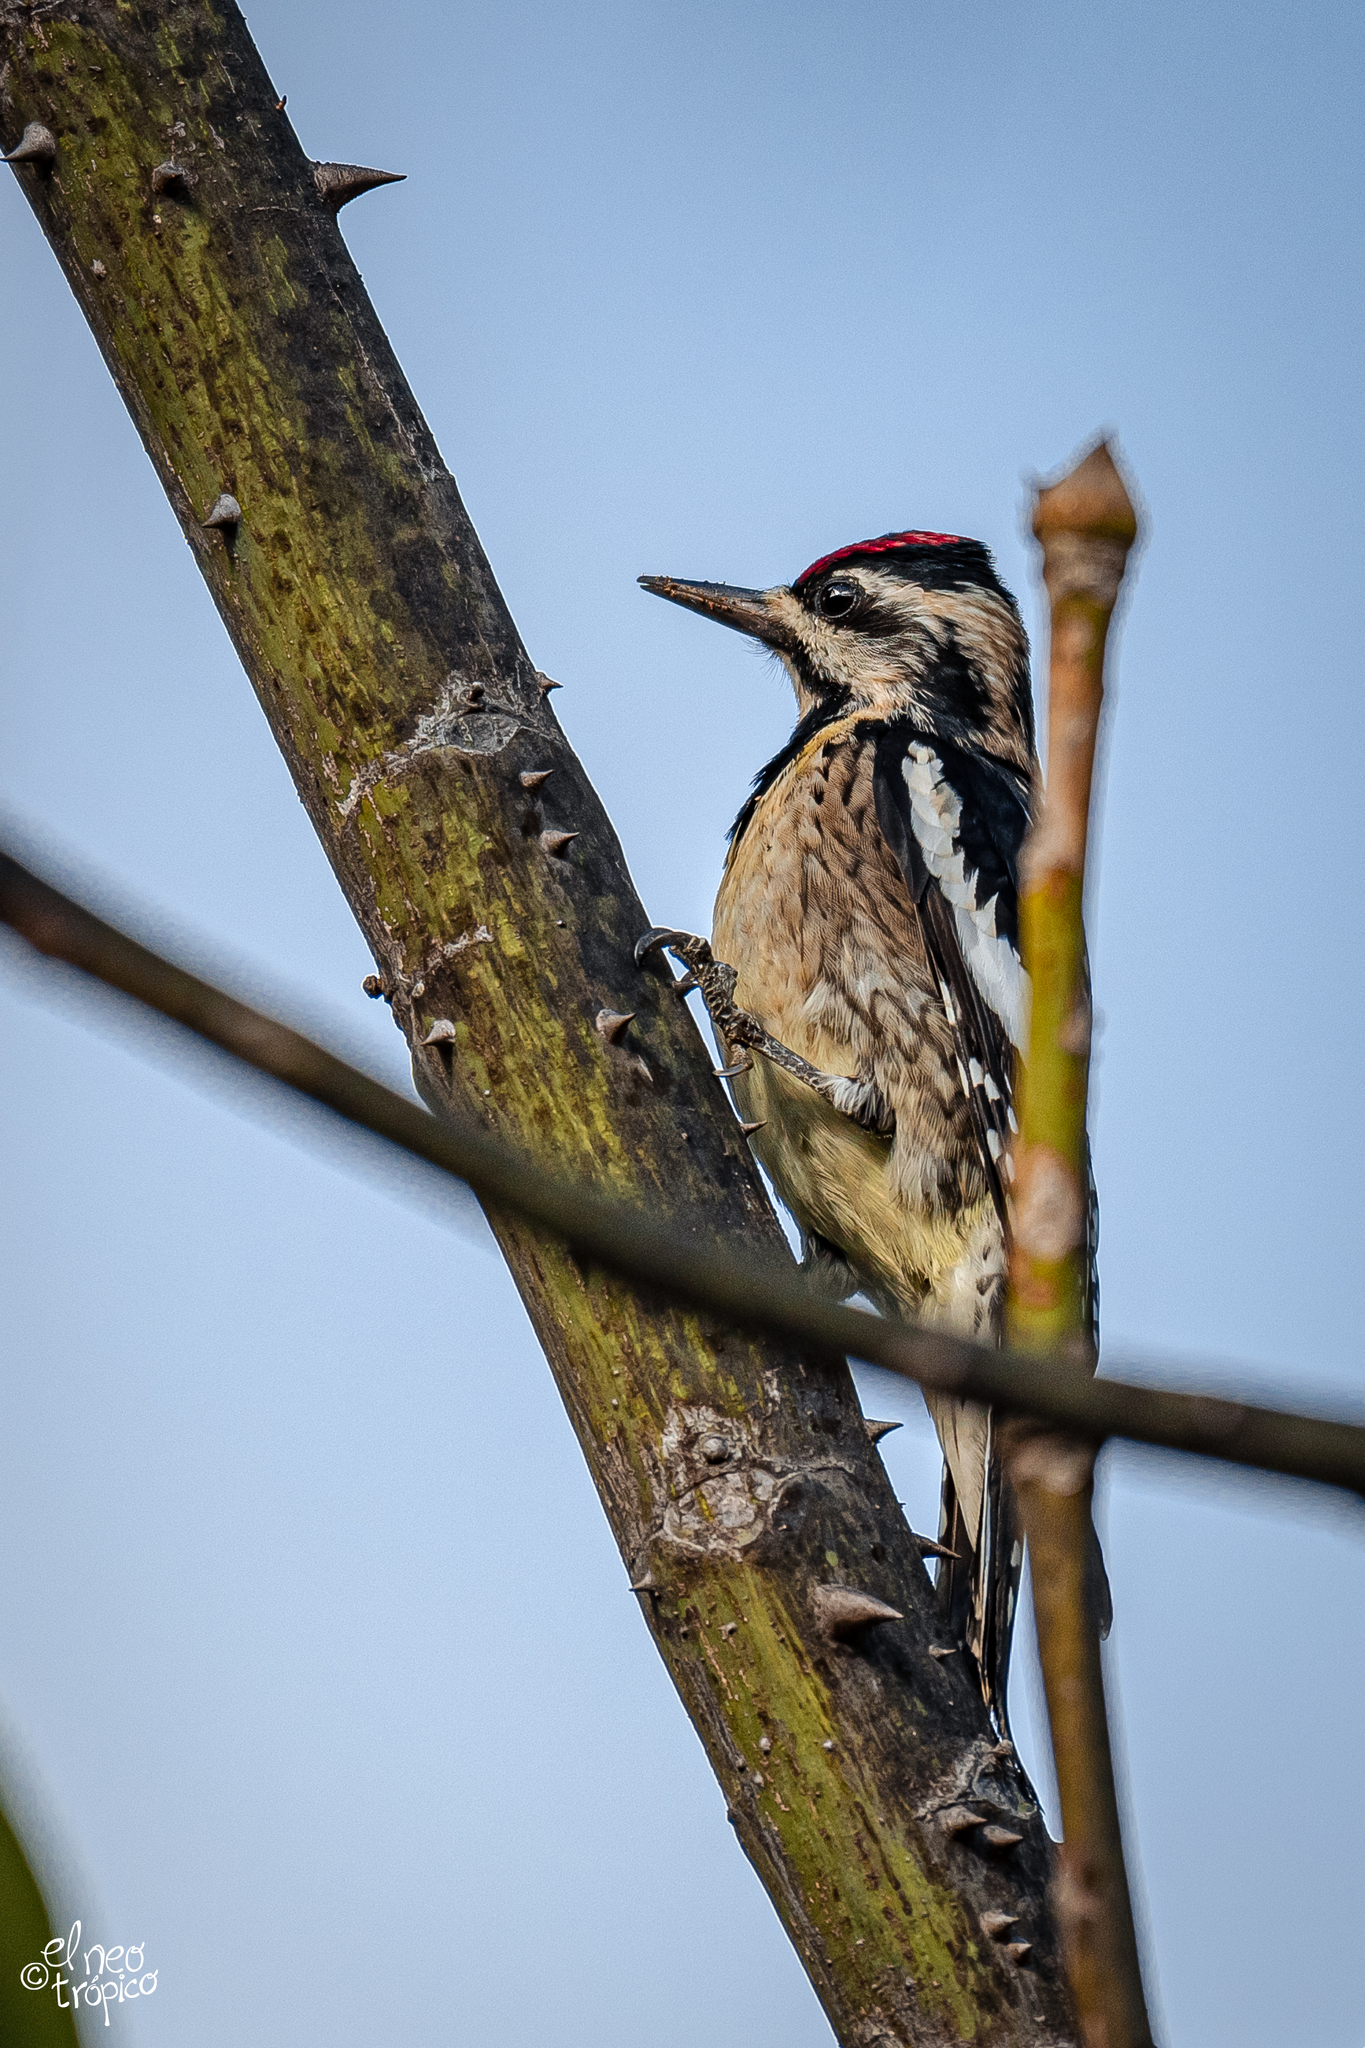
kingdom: Animalia
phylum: Chordata
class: Aves
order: Piciformes
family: Picidae
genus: Sphyrapicus
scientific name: Sphyrapicus varius
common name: Yellow-bellied sapsucker
